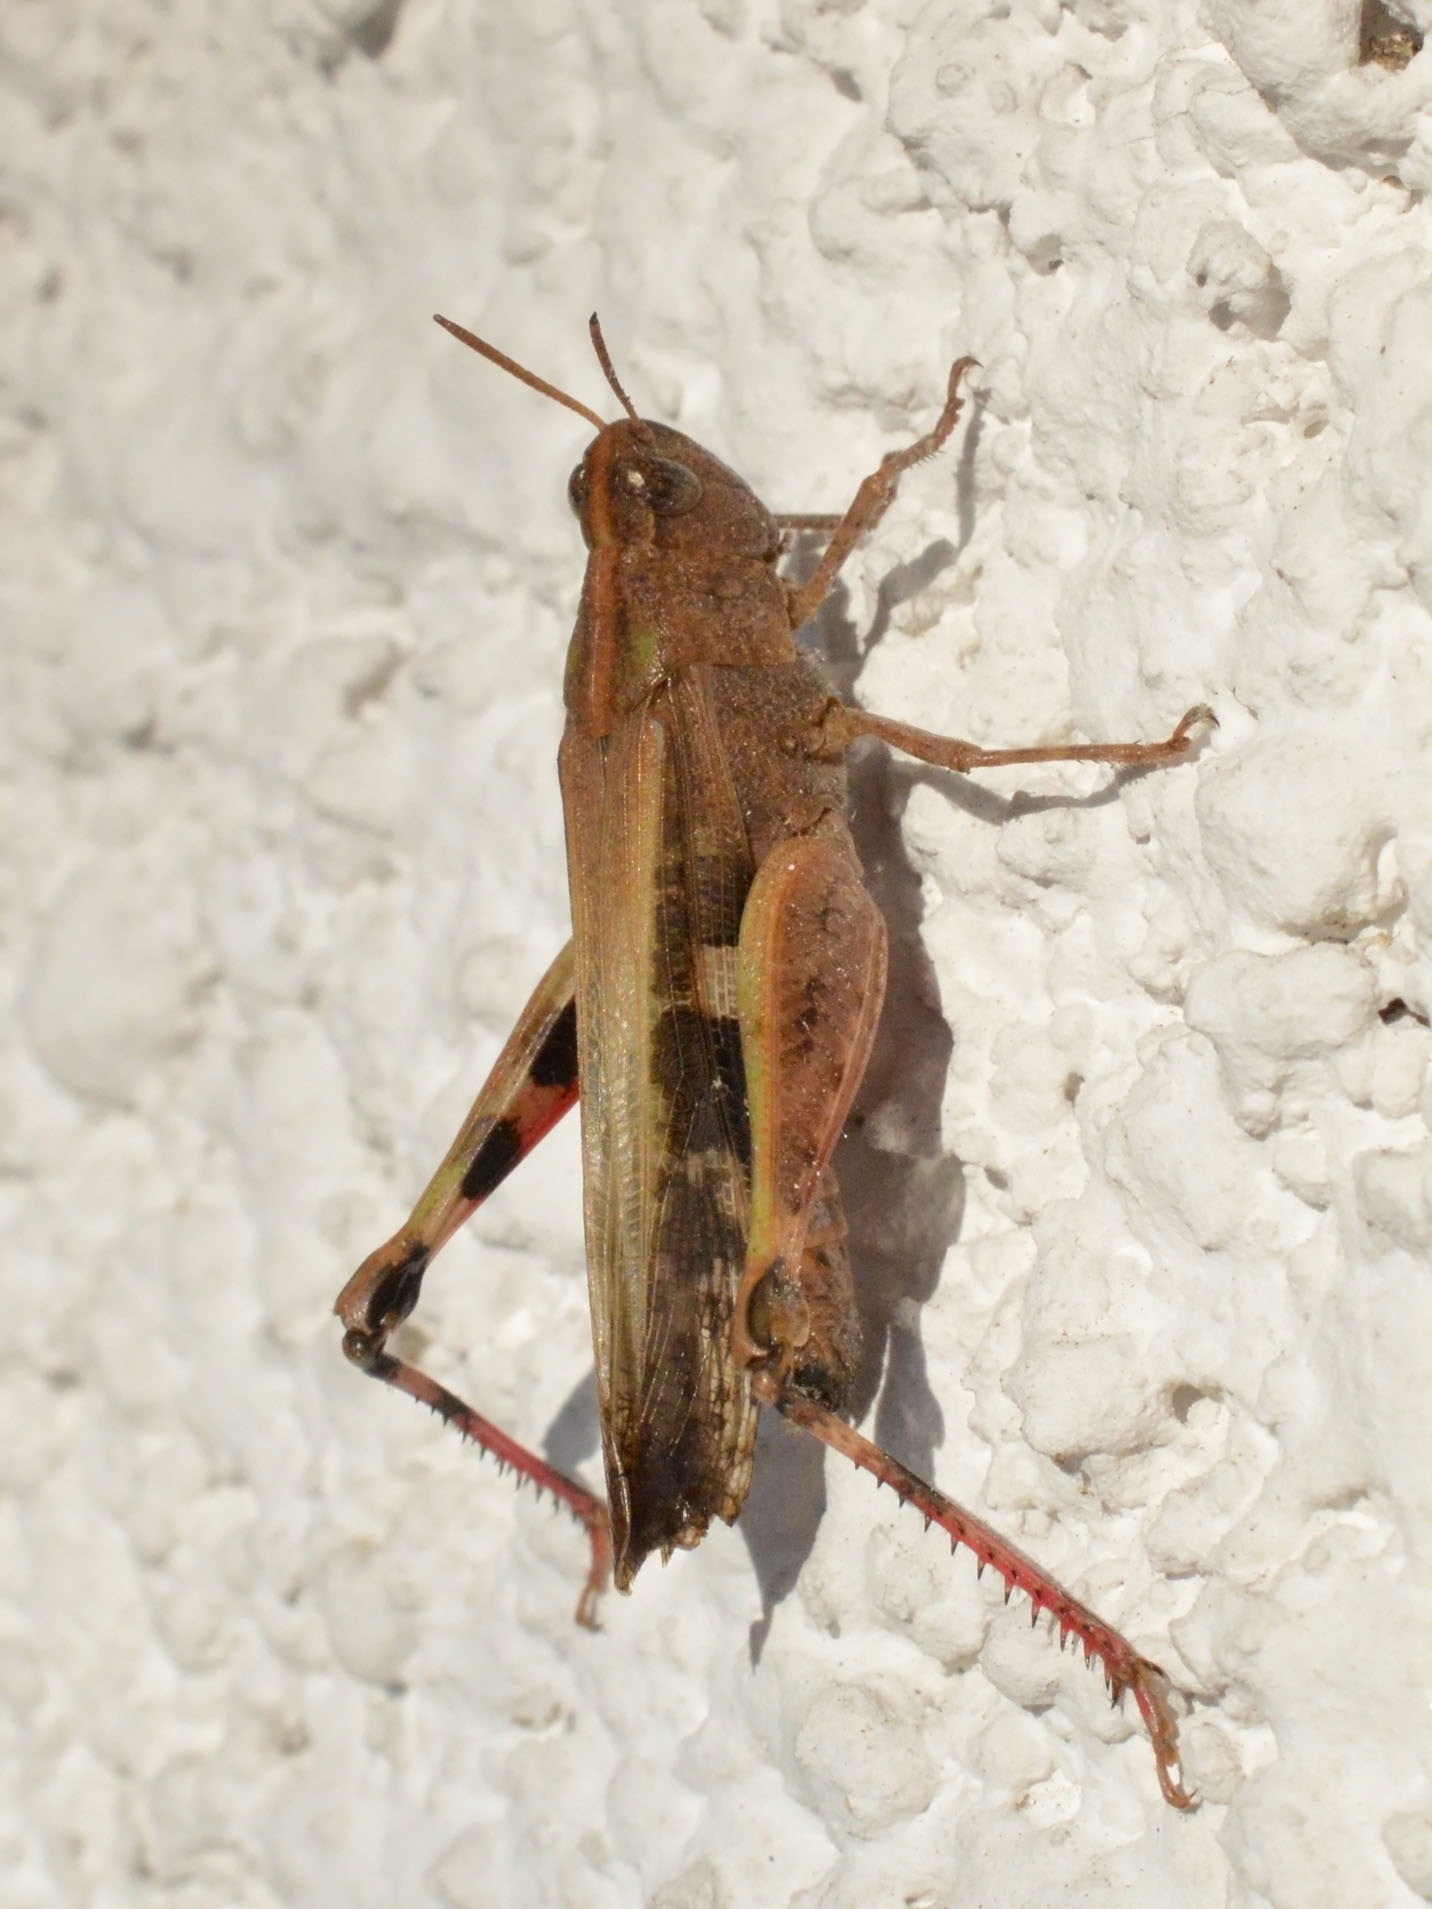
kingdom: Animalia
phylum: Arthropoda
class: Insecta
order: Orthoptera
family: Acrididae
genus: Aiolopus
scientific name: Aiolopus strepens
